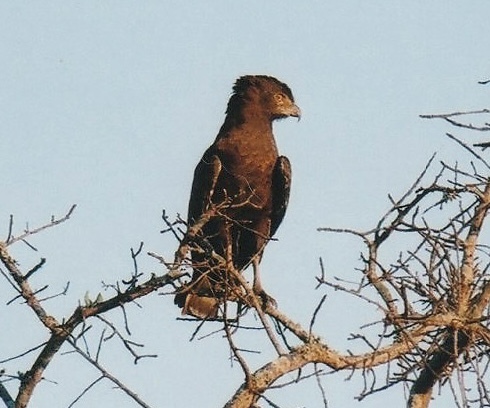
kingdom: Animalia
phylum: Chordata
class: Aves
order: Accipitriformes
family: Accipitridae
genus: Circaetus
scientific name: Circaetus cinereus
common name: Brown snake eagle
